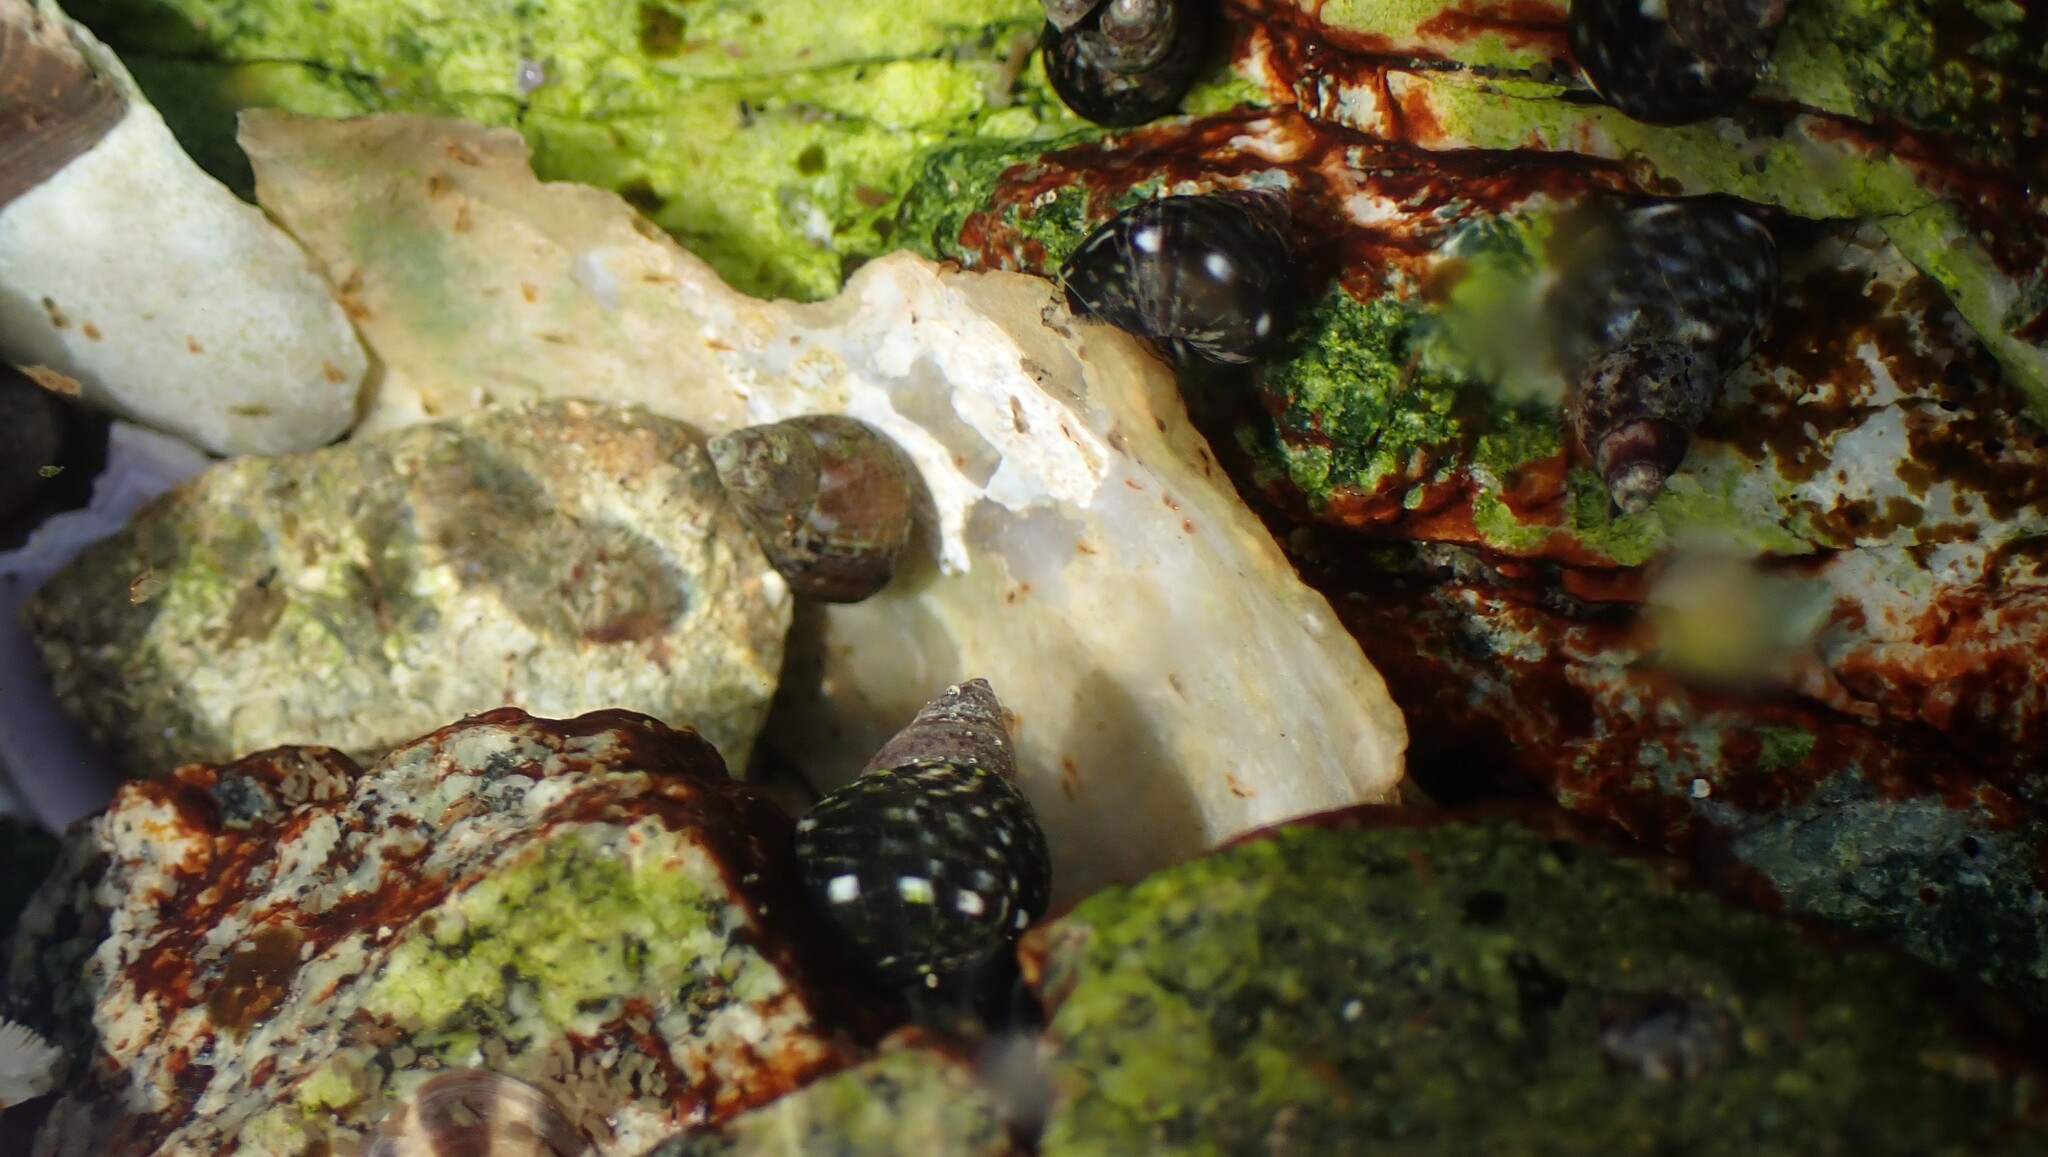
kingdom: Animalia
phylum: Mollusca
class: Gastropoda
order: Littorinimorpha
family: Littorinidae
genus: Littorina
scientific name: Littorina scutulata
